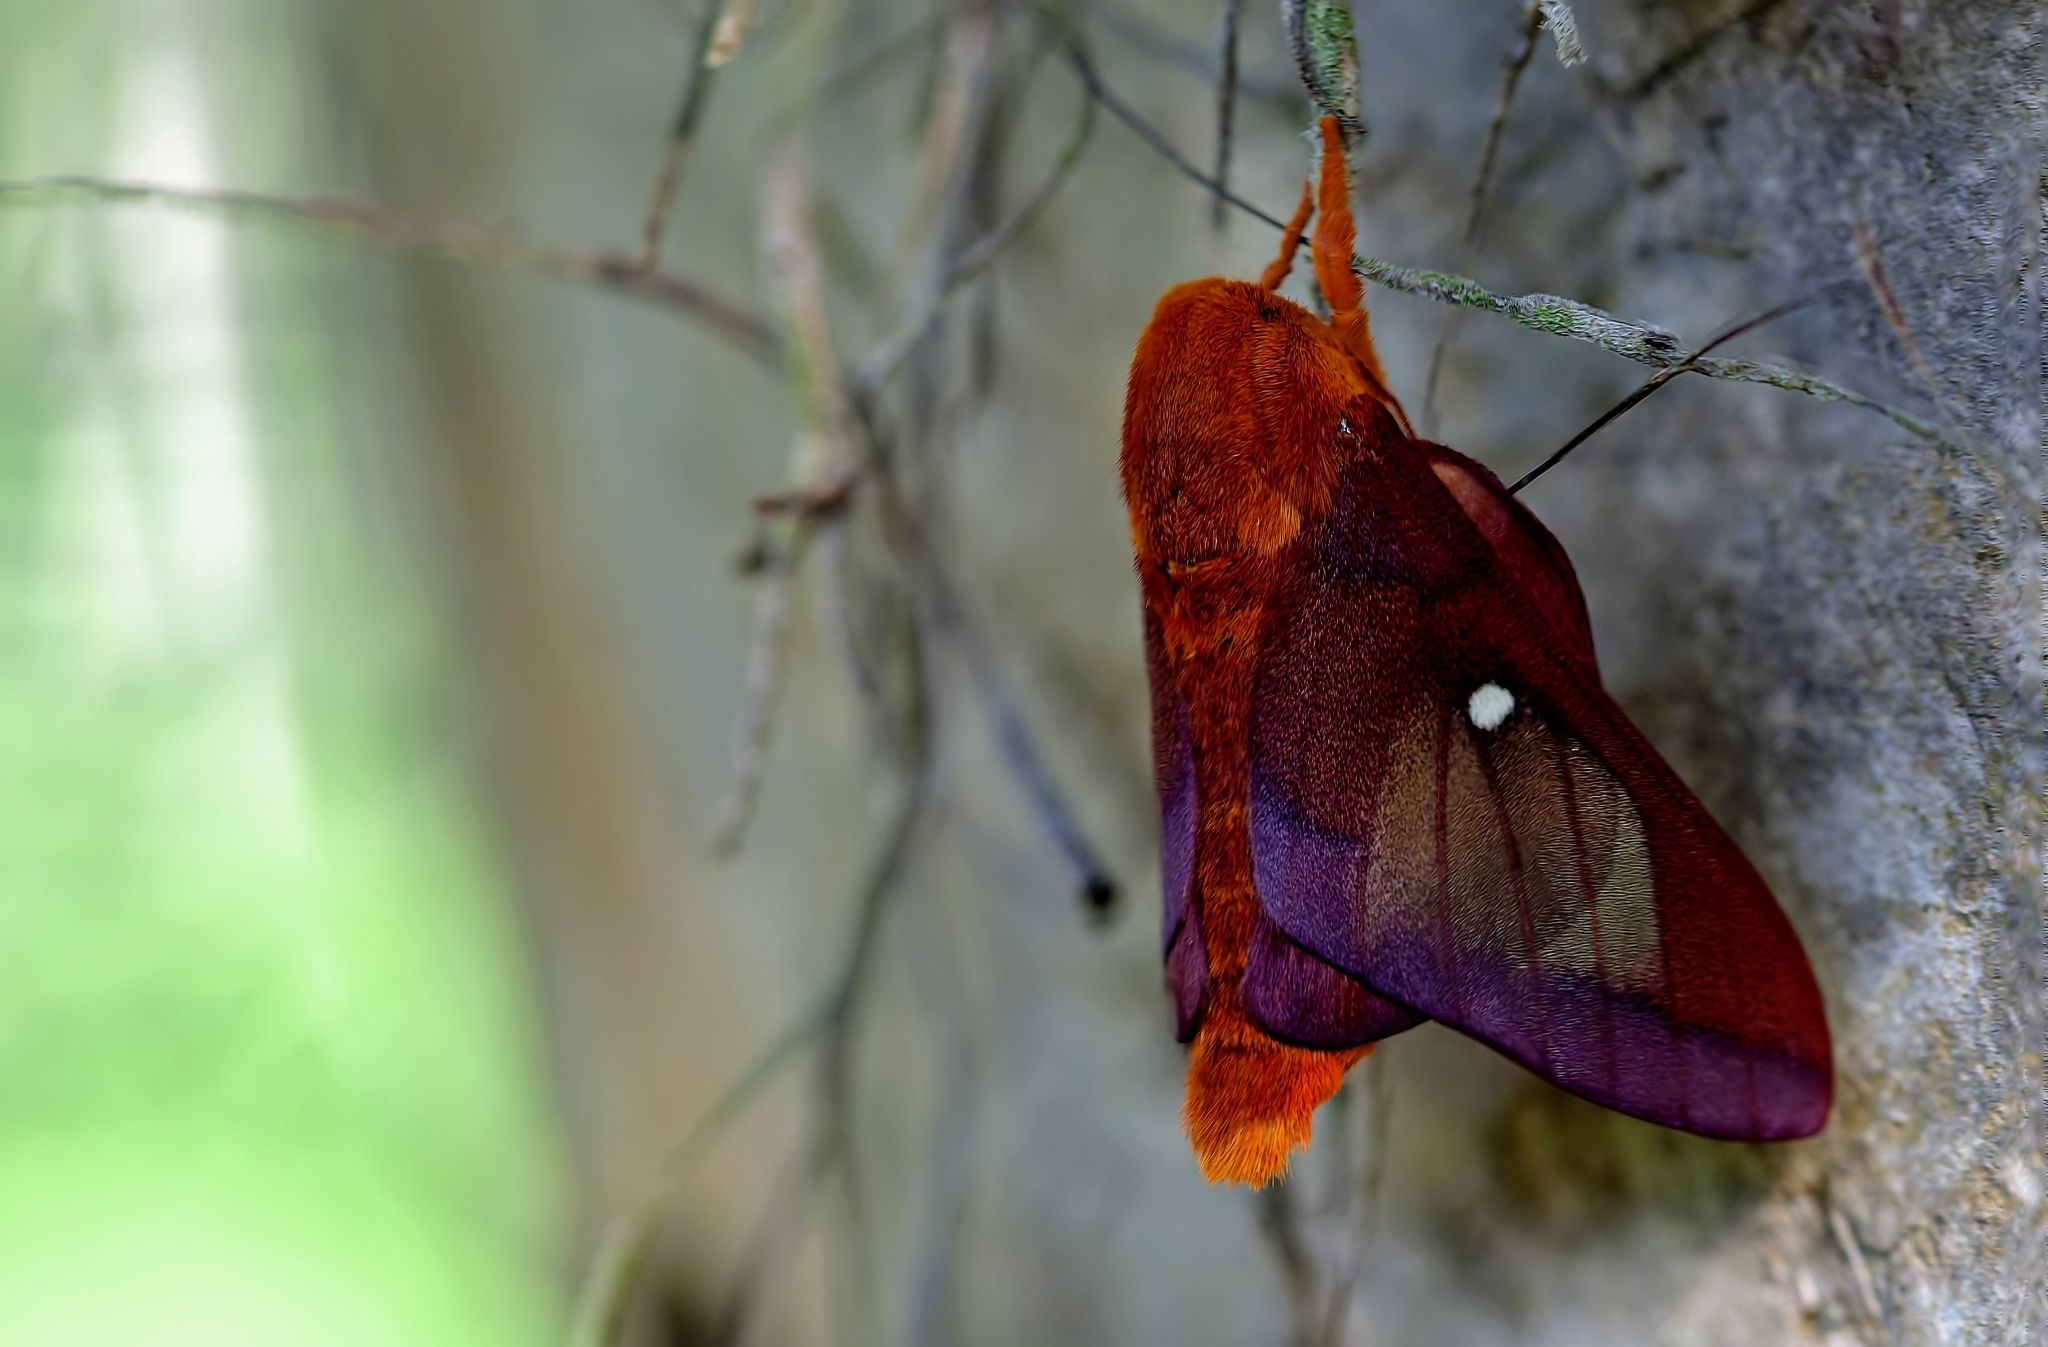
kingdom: Animalia
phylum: Arthropoda
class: Insecta
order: Lepidoptera
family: Saturniidae
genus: Anisota
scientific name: Anisota virginiensis
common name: Pink striped oakworm moth
